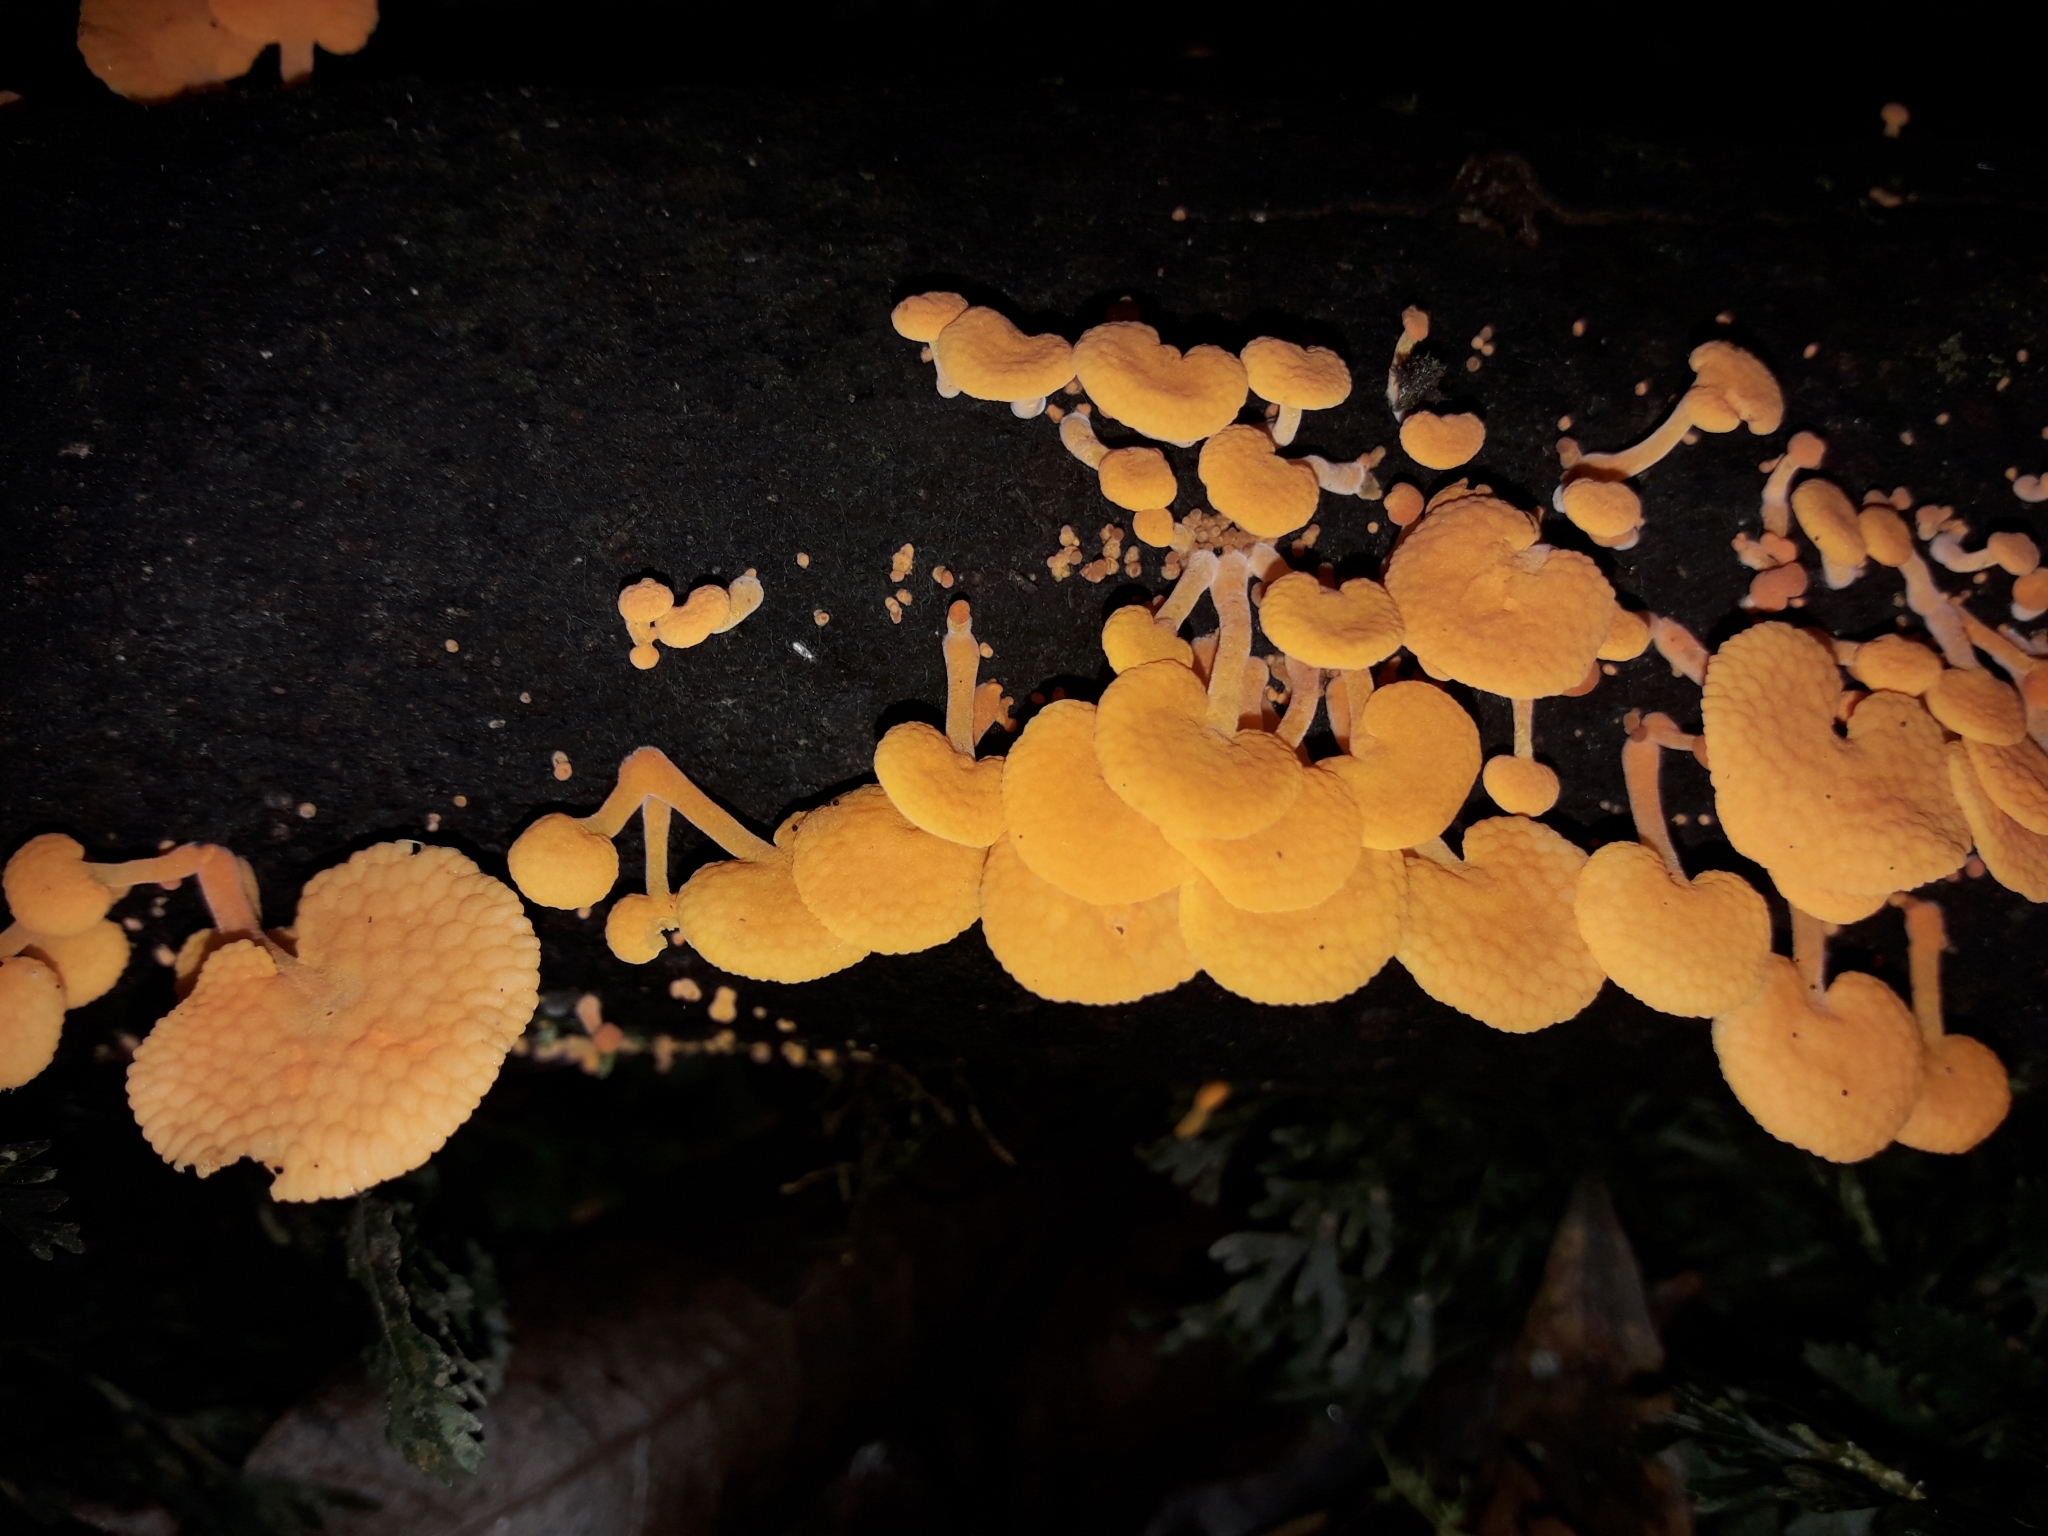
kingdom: Fungi
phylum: Basidiomycota
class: Agaricomycetes
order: Agaricales
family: Mycenaceae
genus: Favolaschia
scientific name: Favolaschia claudopus
